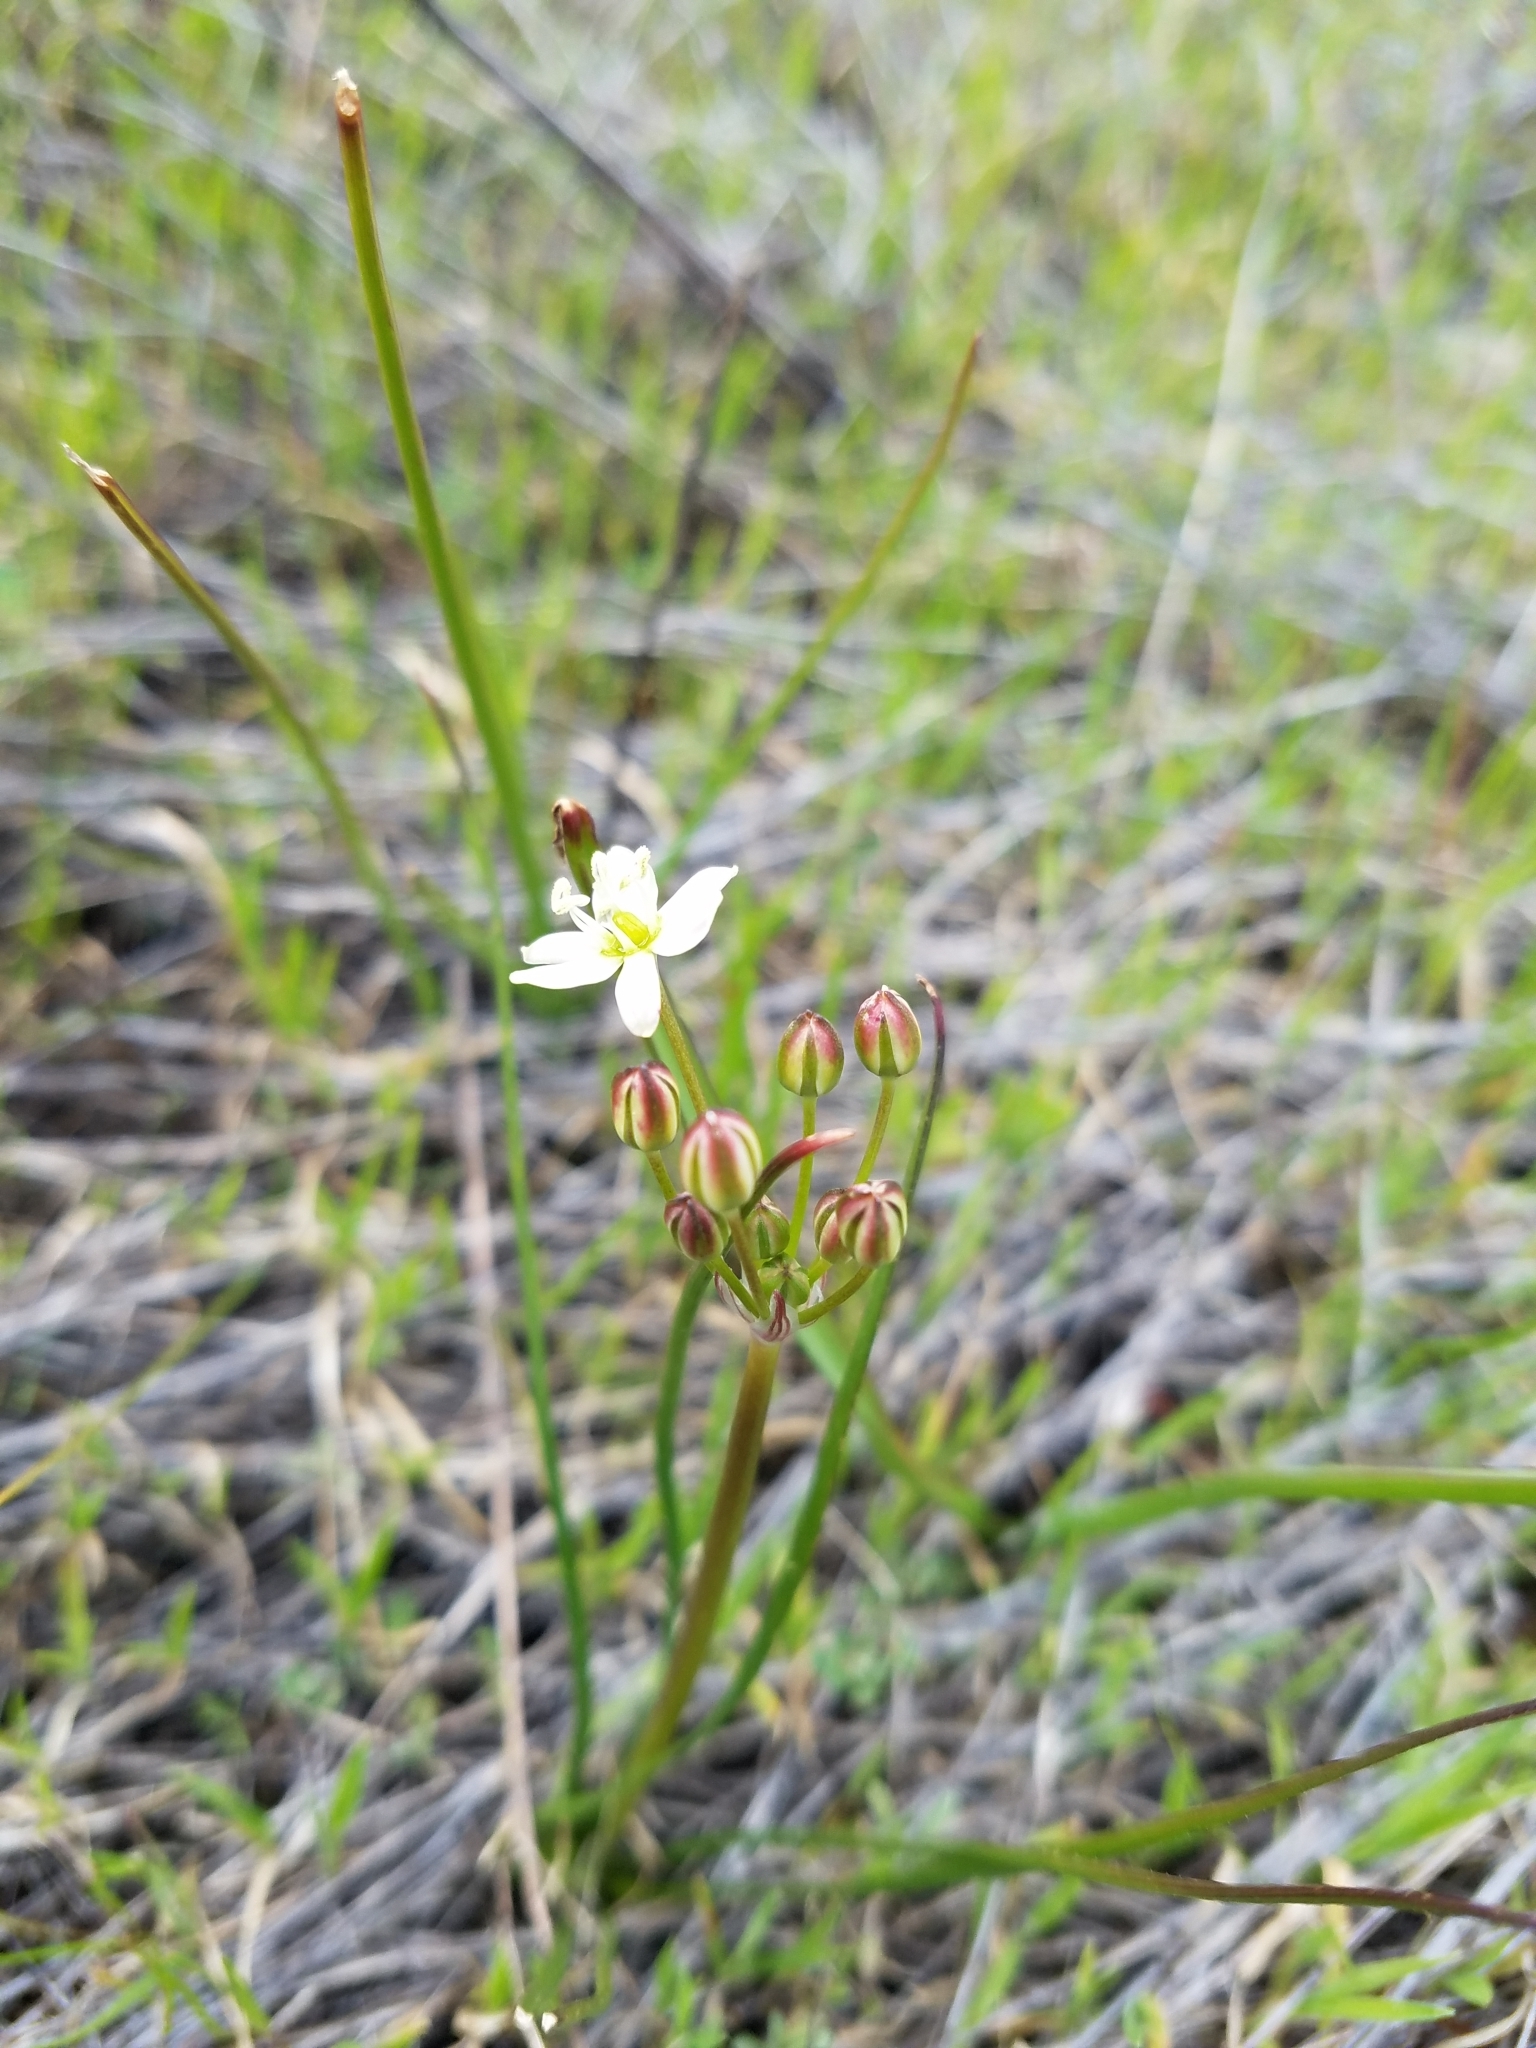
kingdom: Plantae
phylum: Tracheophyta
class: Liliopsida
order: Asparagales
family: Asparagaceae
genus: Muilla
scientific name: Muilla maritima
